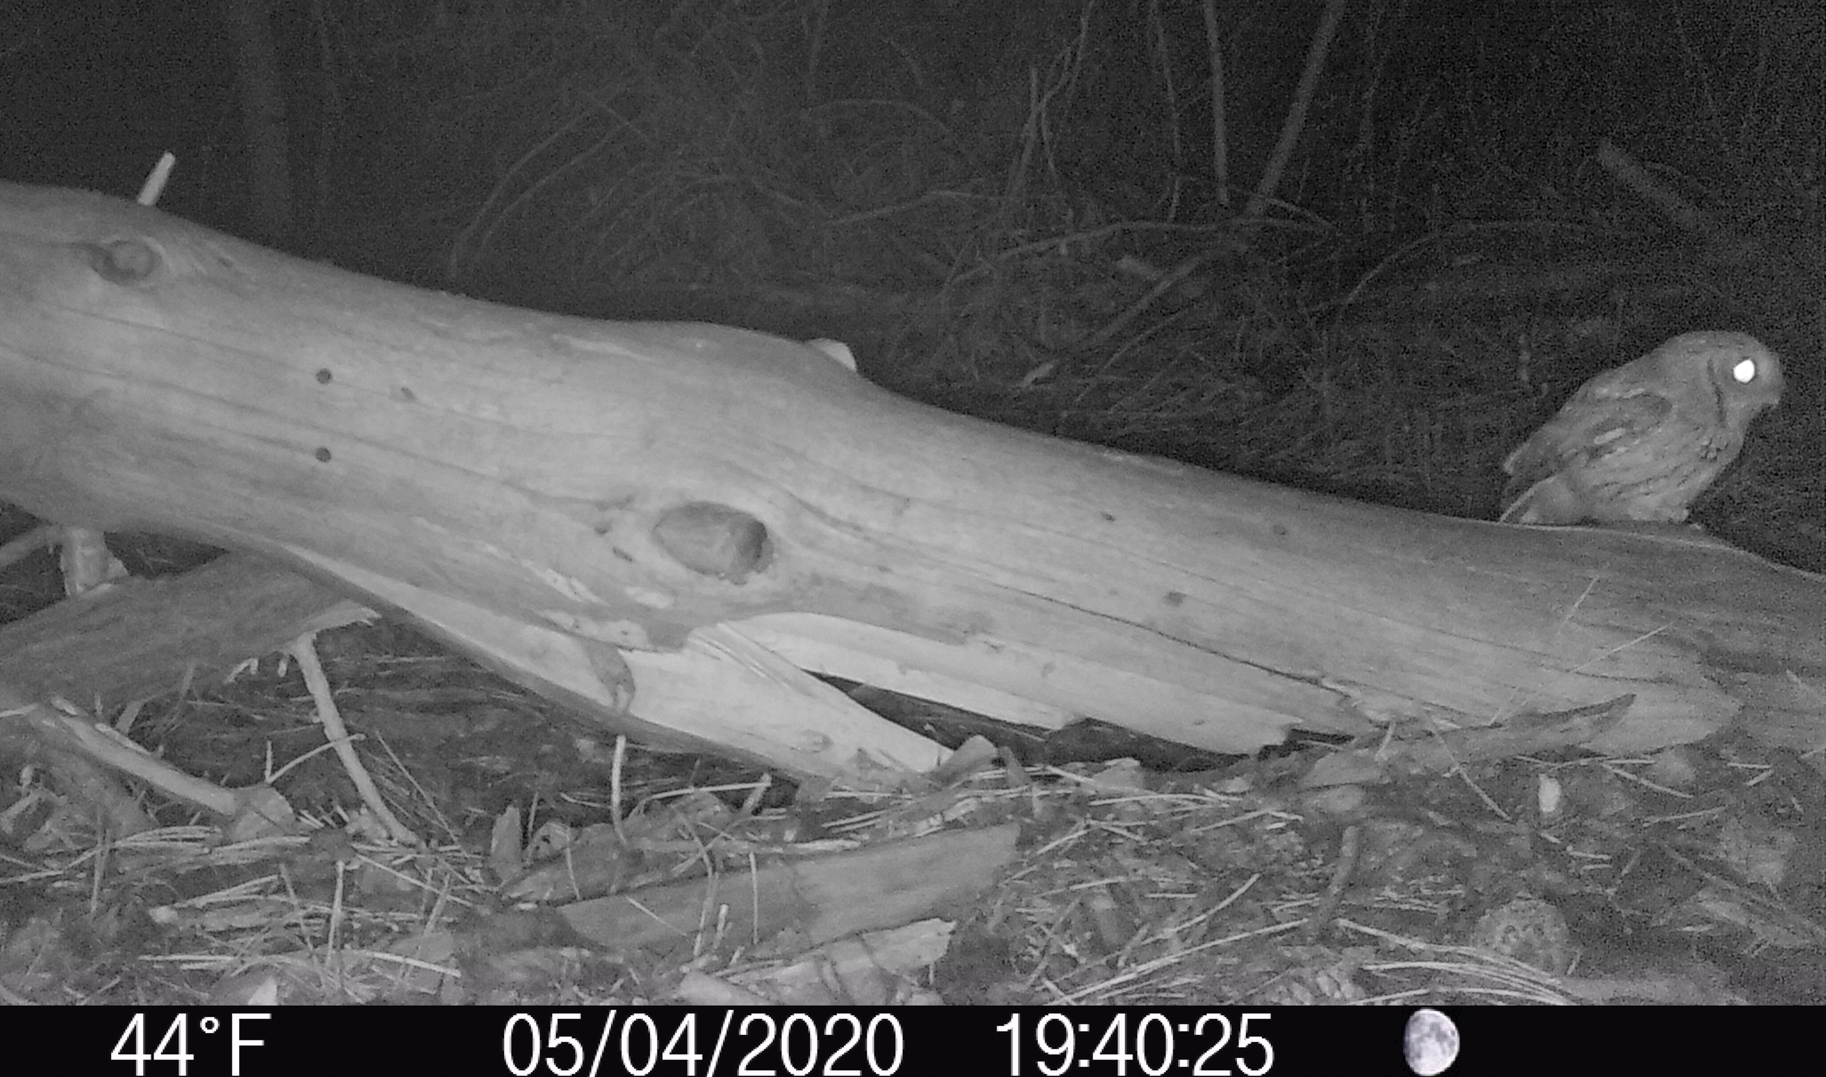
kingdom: Animalia
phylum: Chordata
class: Aves
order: Strigiformes
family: Strigidae
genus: Megascops
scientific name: Megascops asio
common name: Eastern screech-owl
